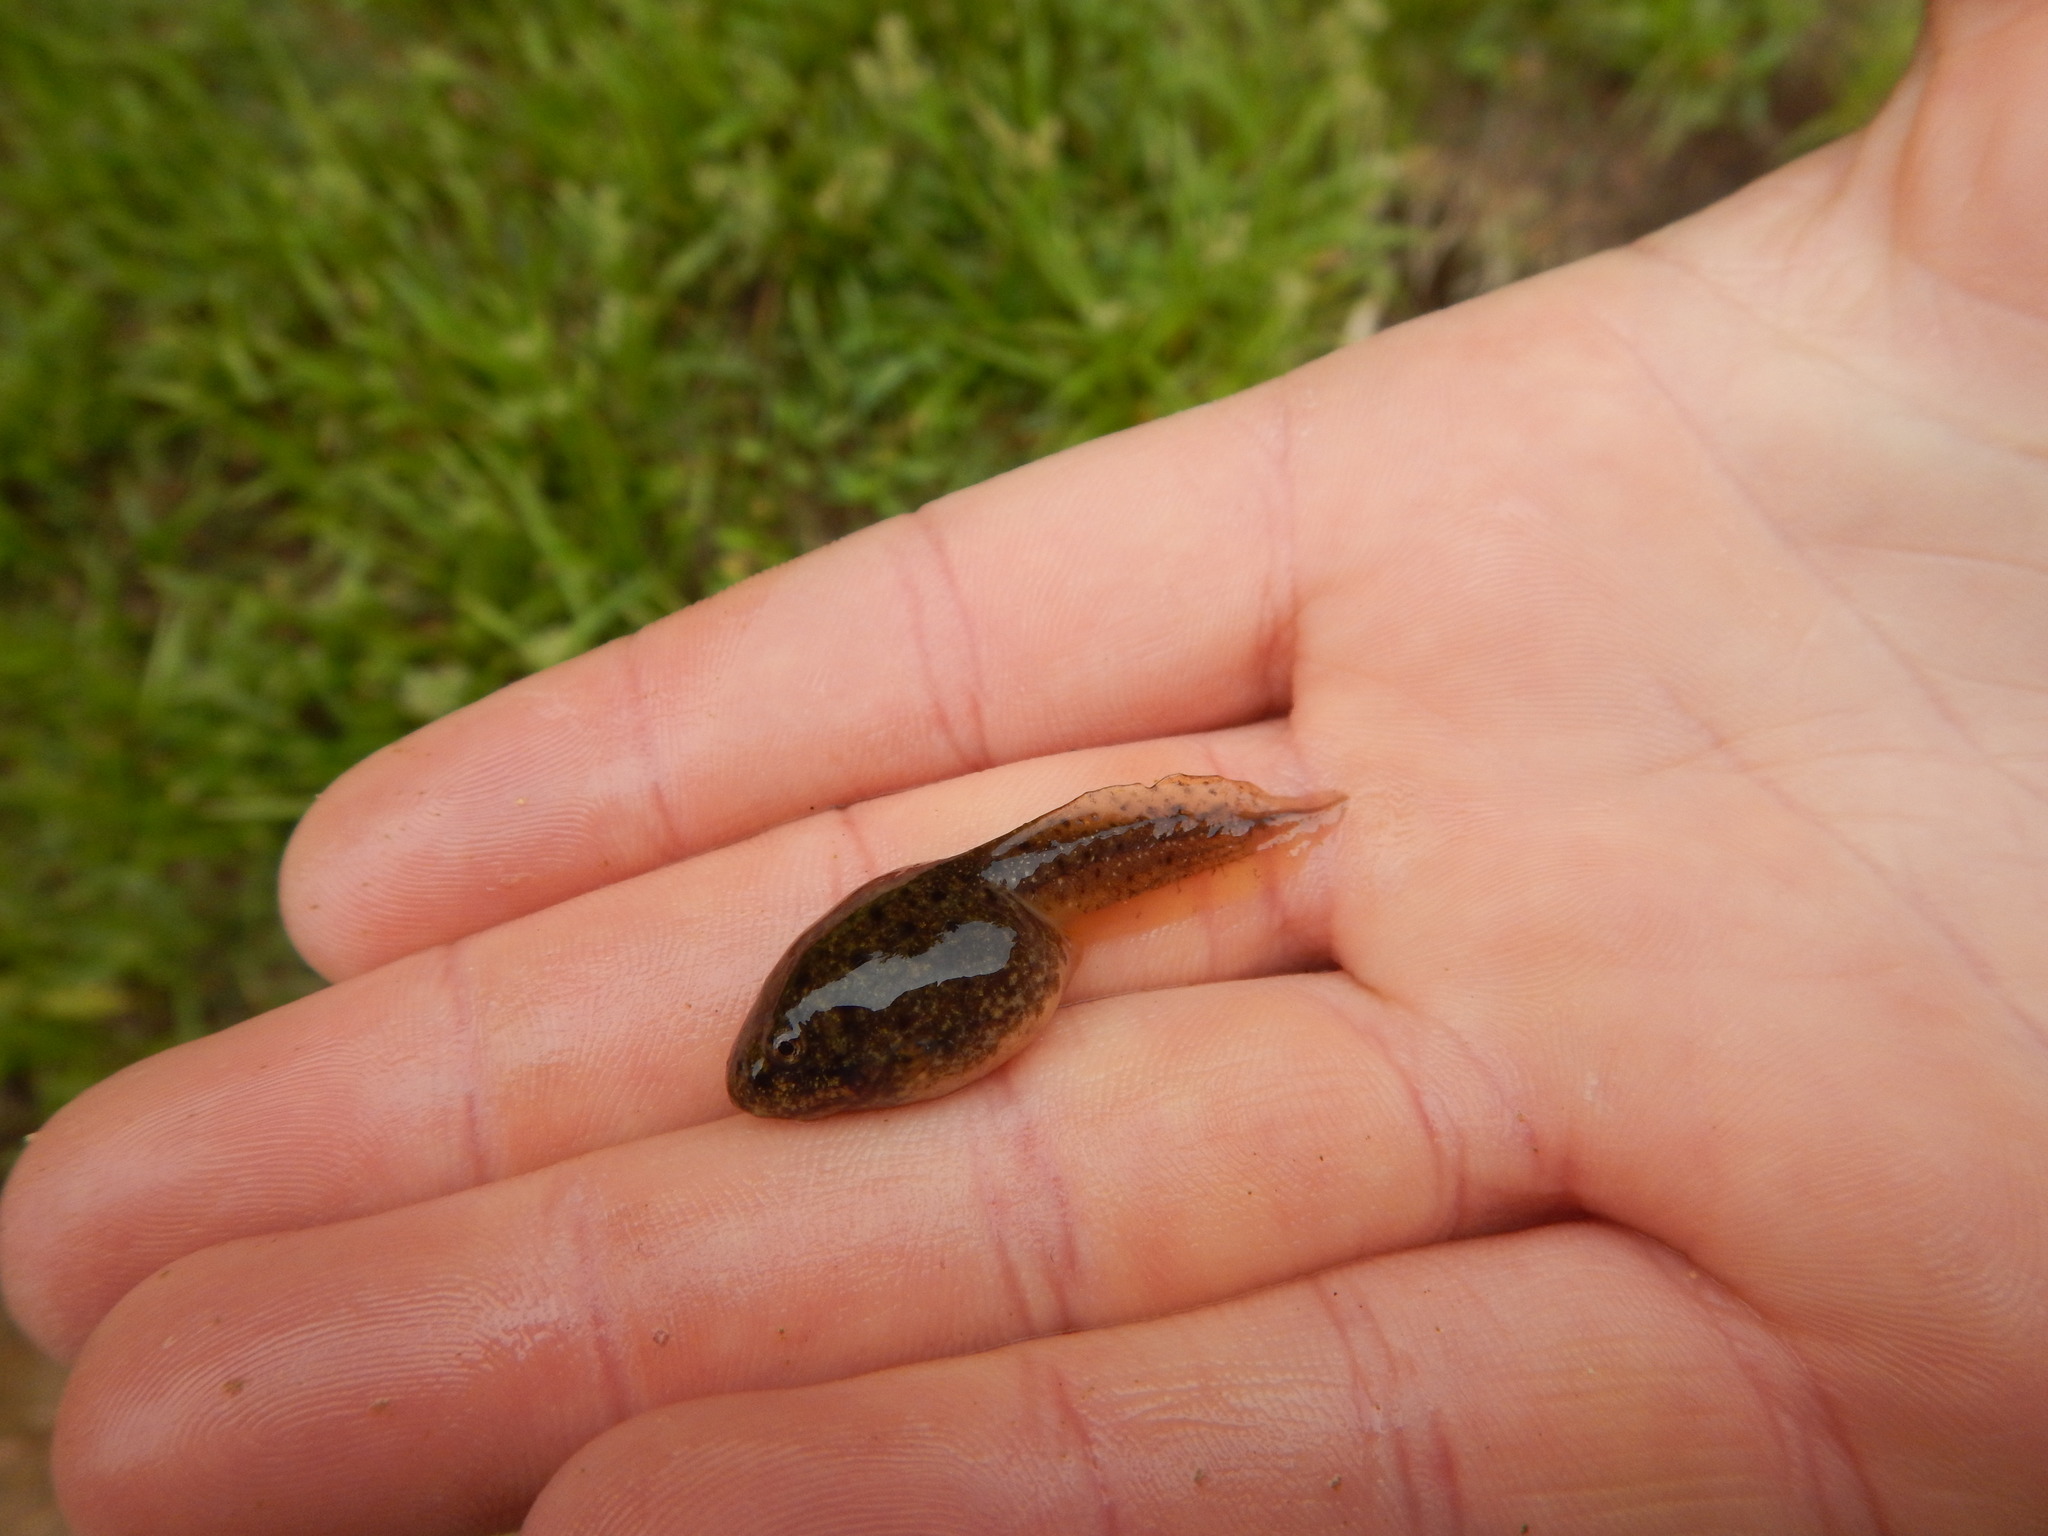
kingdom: Animalia
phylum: Chordata
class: Amphibia
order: Anura
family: Ranidae
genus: Lithobates
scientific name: Lithobates catesbeianus
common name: American bullfrog
